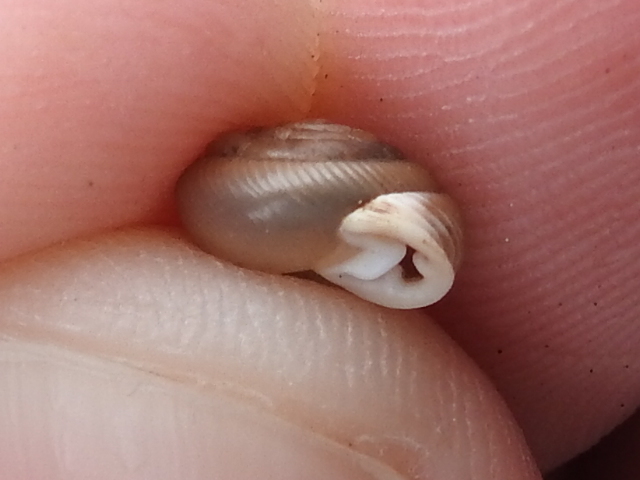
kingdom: Animalia
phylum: Mollusca
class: Gastropoda
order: Stylommatophora
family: Polygyridae
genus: Daedalochila
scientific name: Daedalochila mooreana
